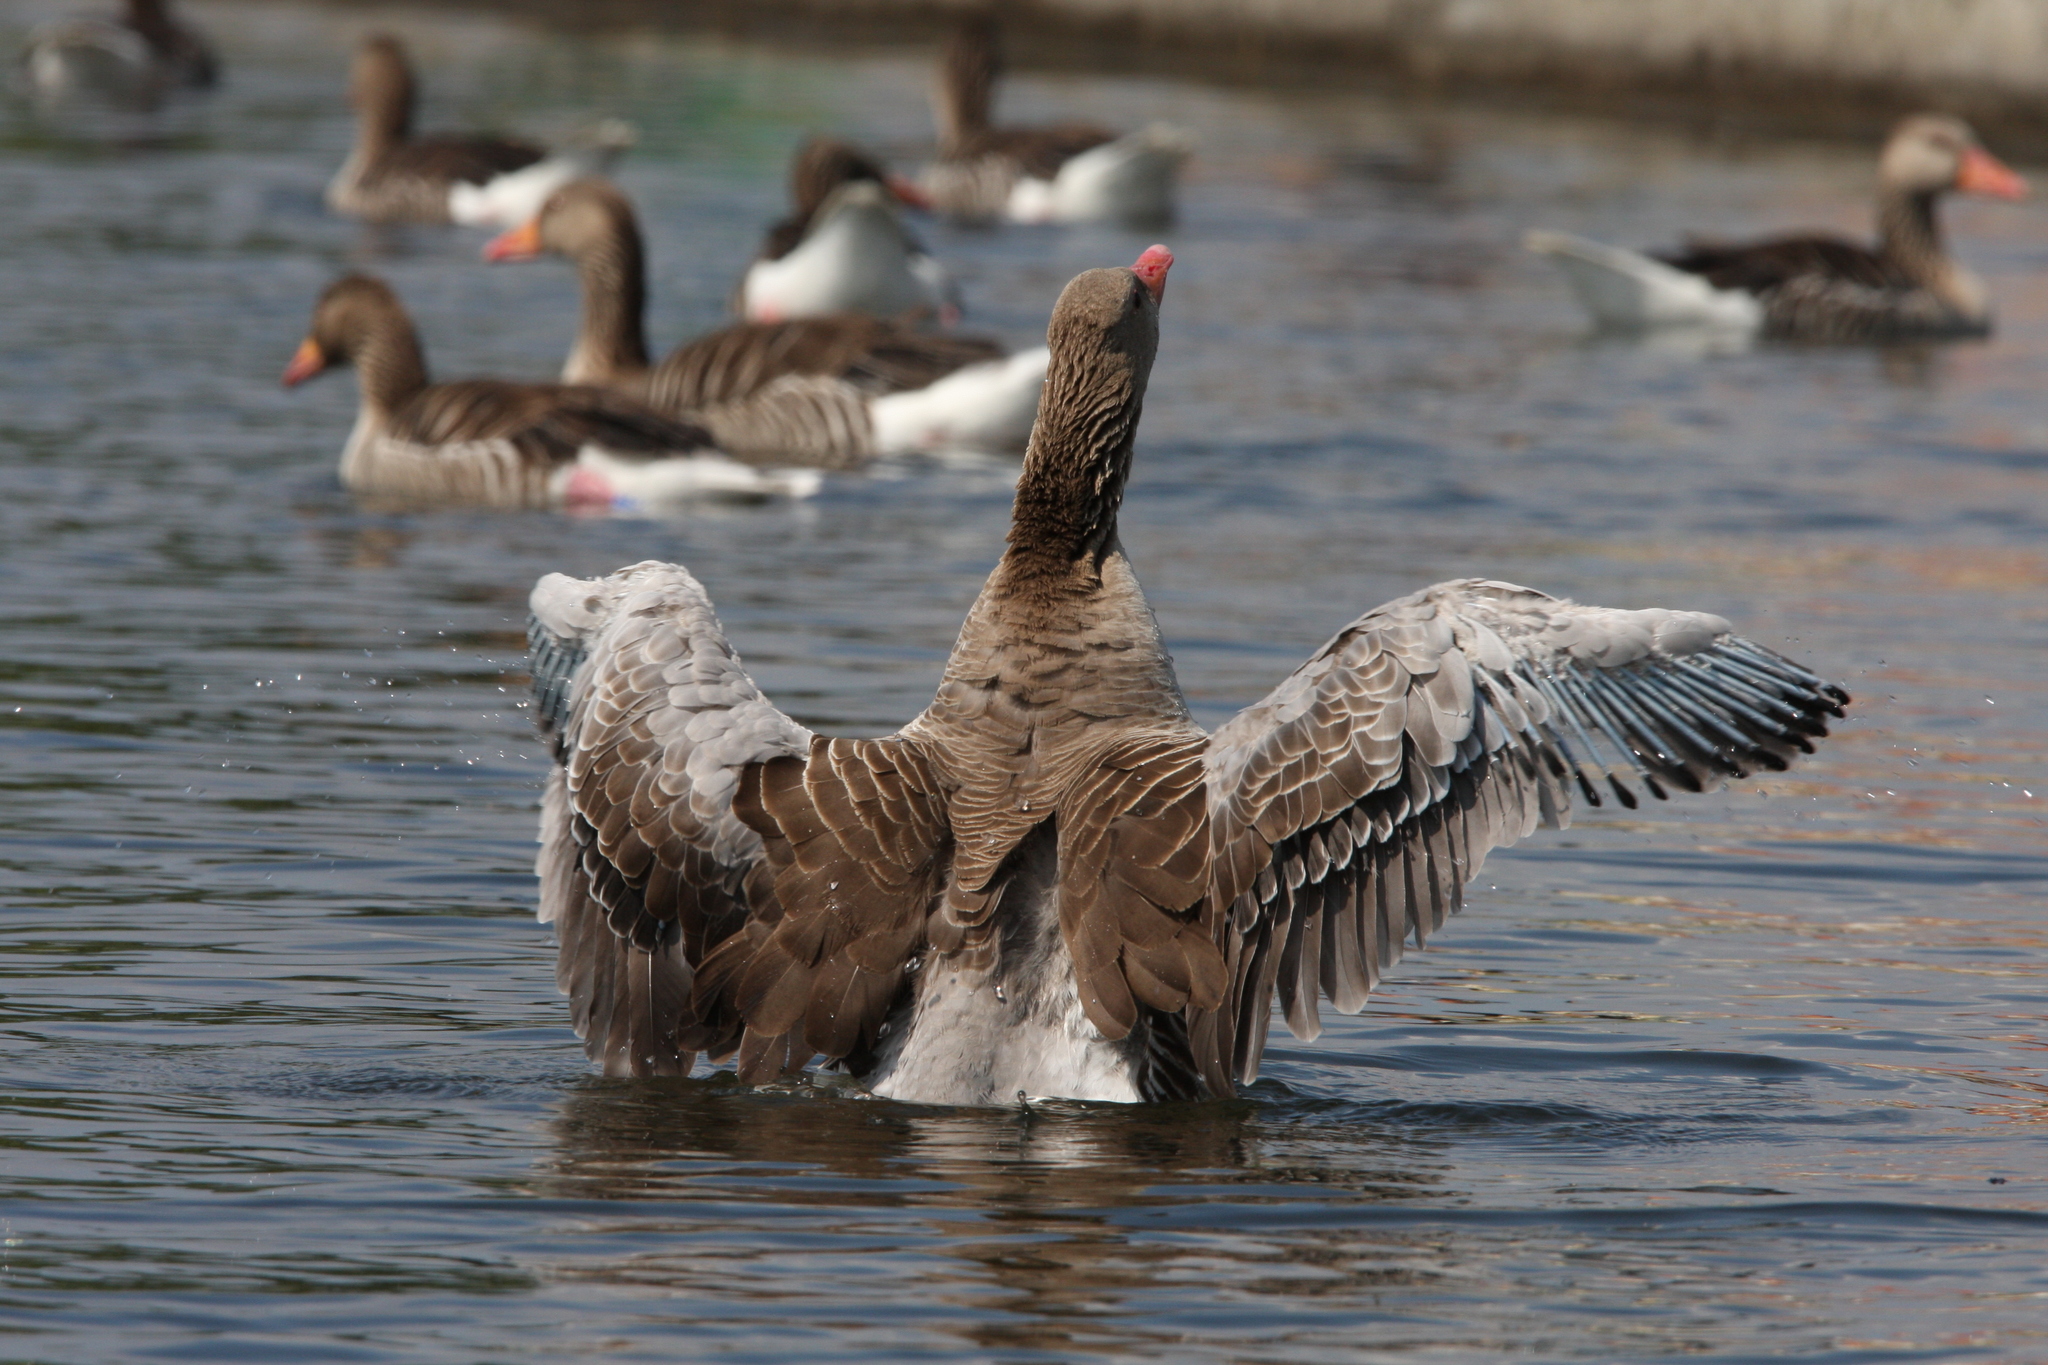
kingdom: Animalia
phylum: Chordata
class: Aves
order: Anseriformes
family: Anatidae
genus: Anser
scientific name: Anser anser
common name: Greylag goose
